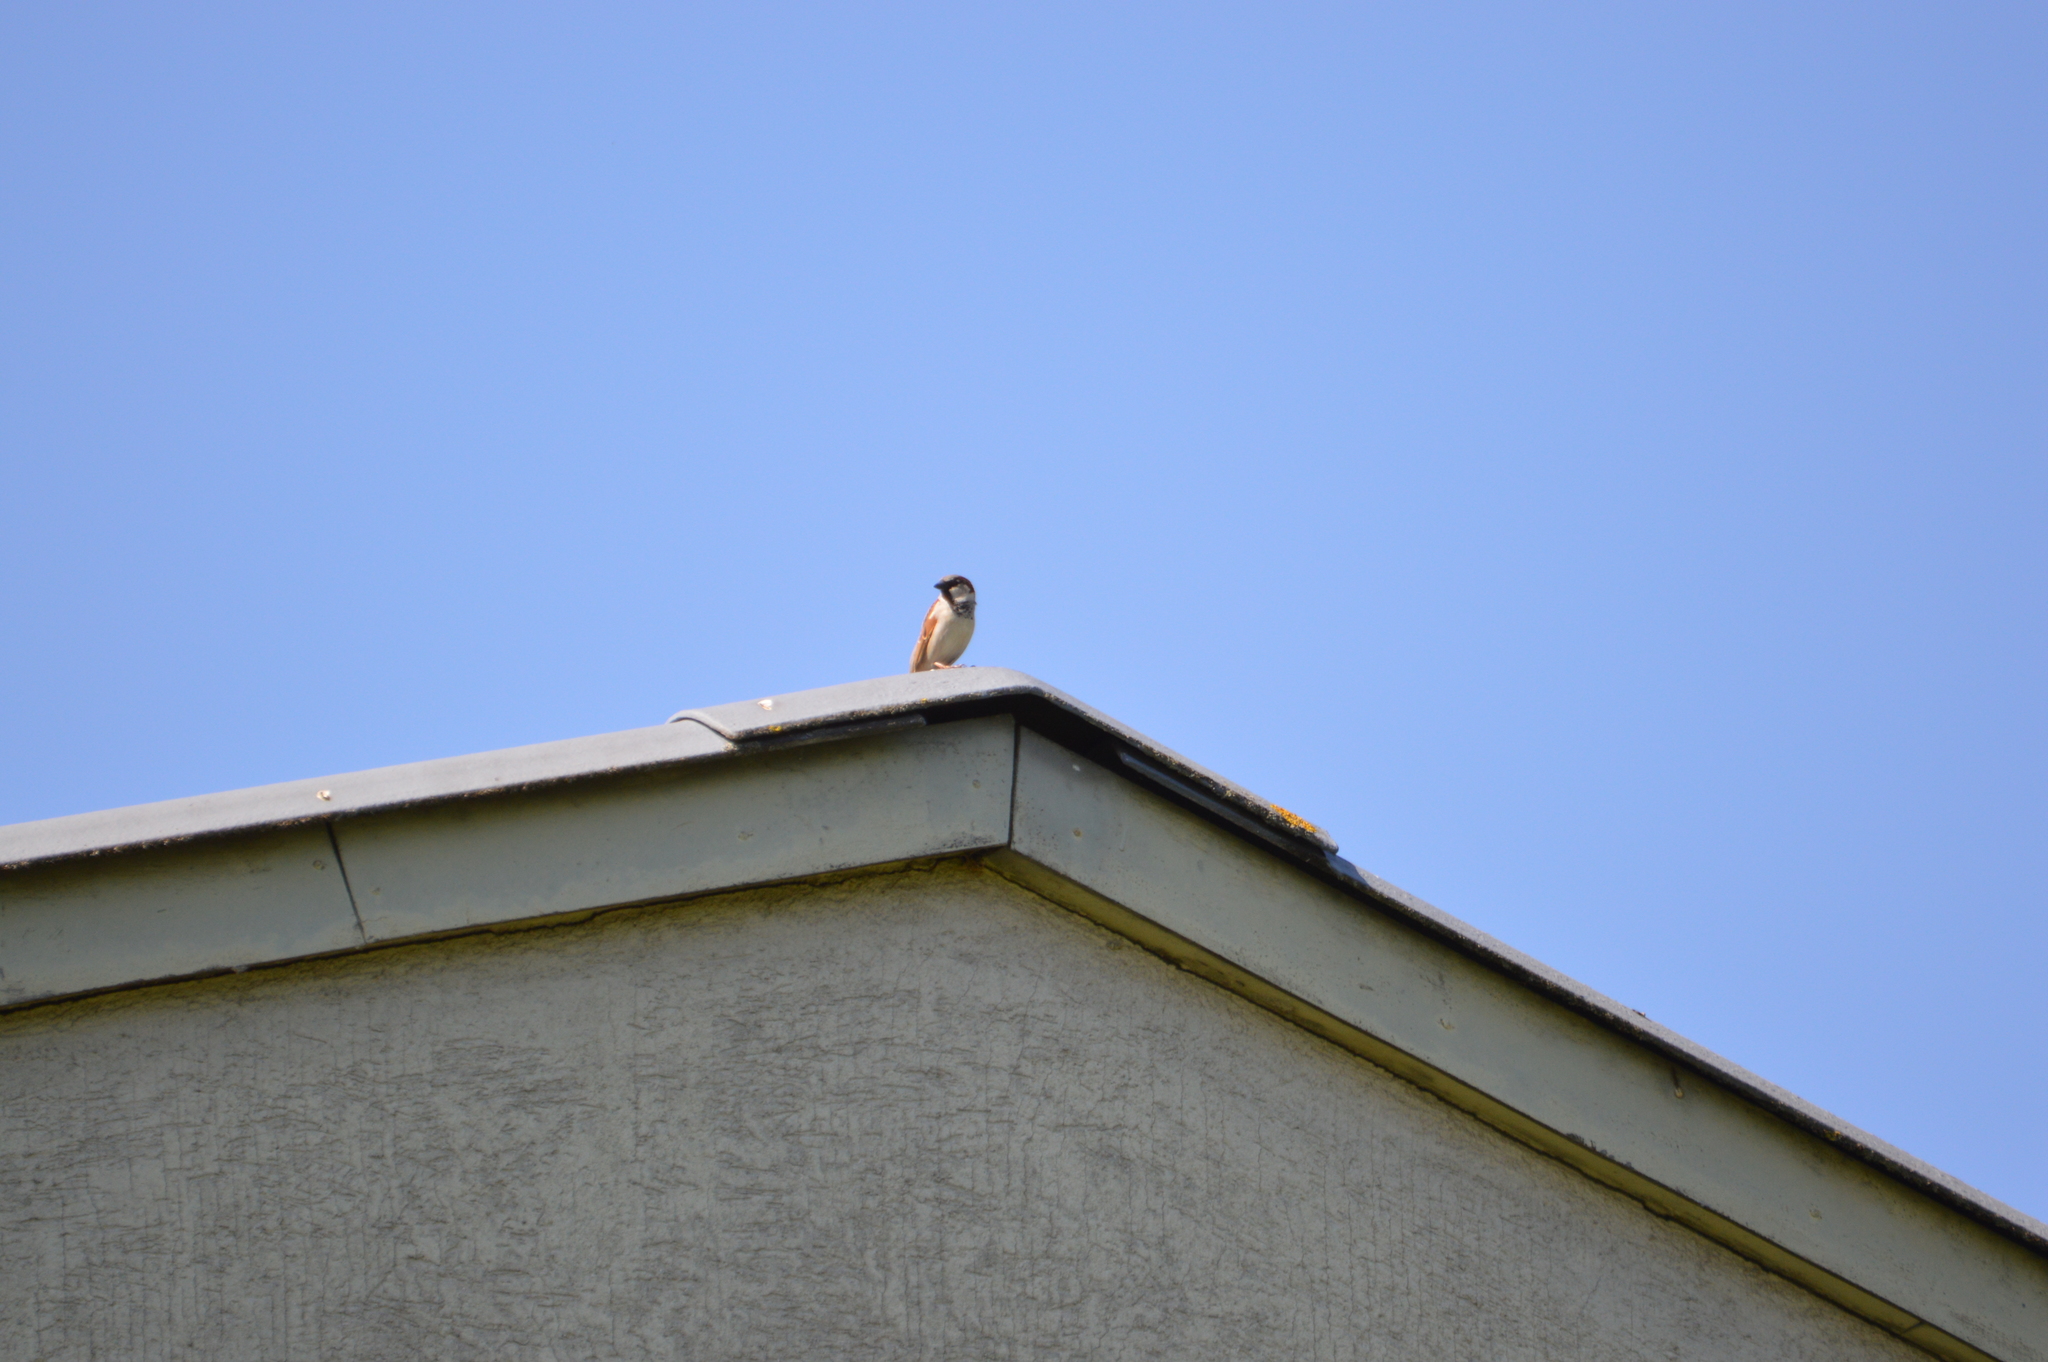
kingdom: Animalia
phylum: Chordata
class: Aves
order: Passeriformes
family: Passeridae
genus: Passer
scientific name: Passer domesticus
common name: House sparrow
